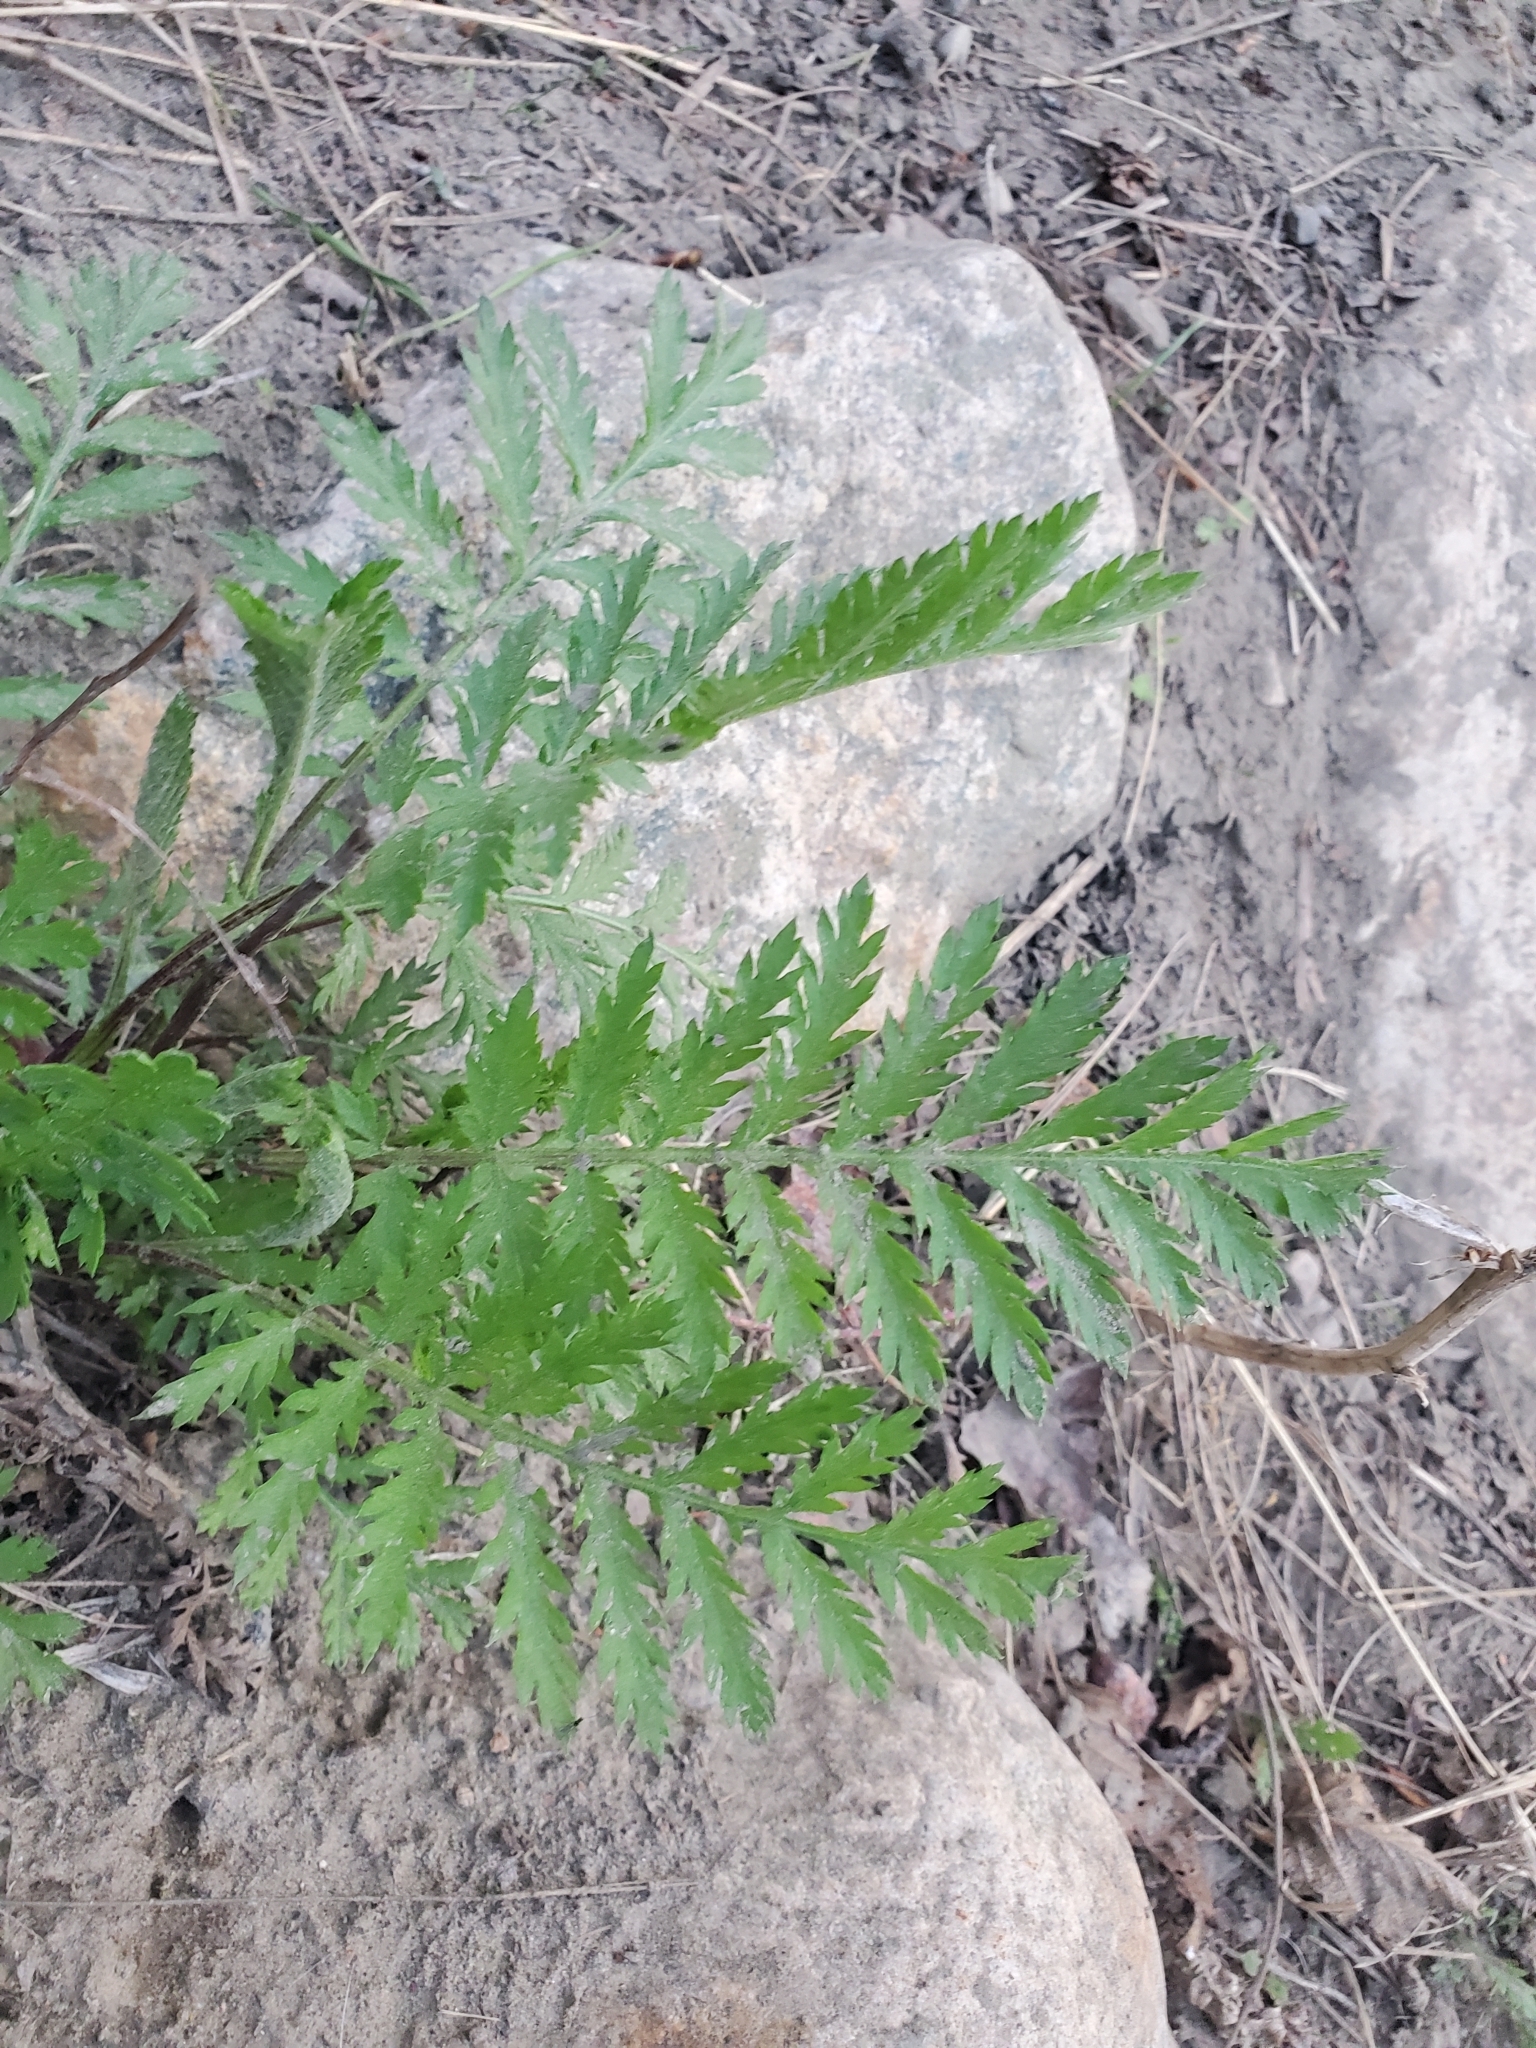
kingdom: Plantae
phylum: Tracheophyta
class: Magnoliopsida
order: Asterales
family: Asteraceae
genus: Tanacetum
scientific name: Tanacetum vulgare
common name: Common tansy
